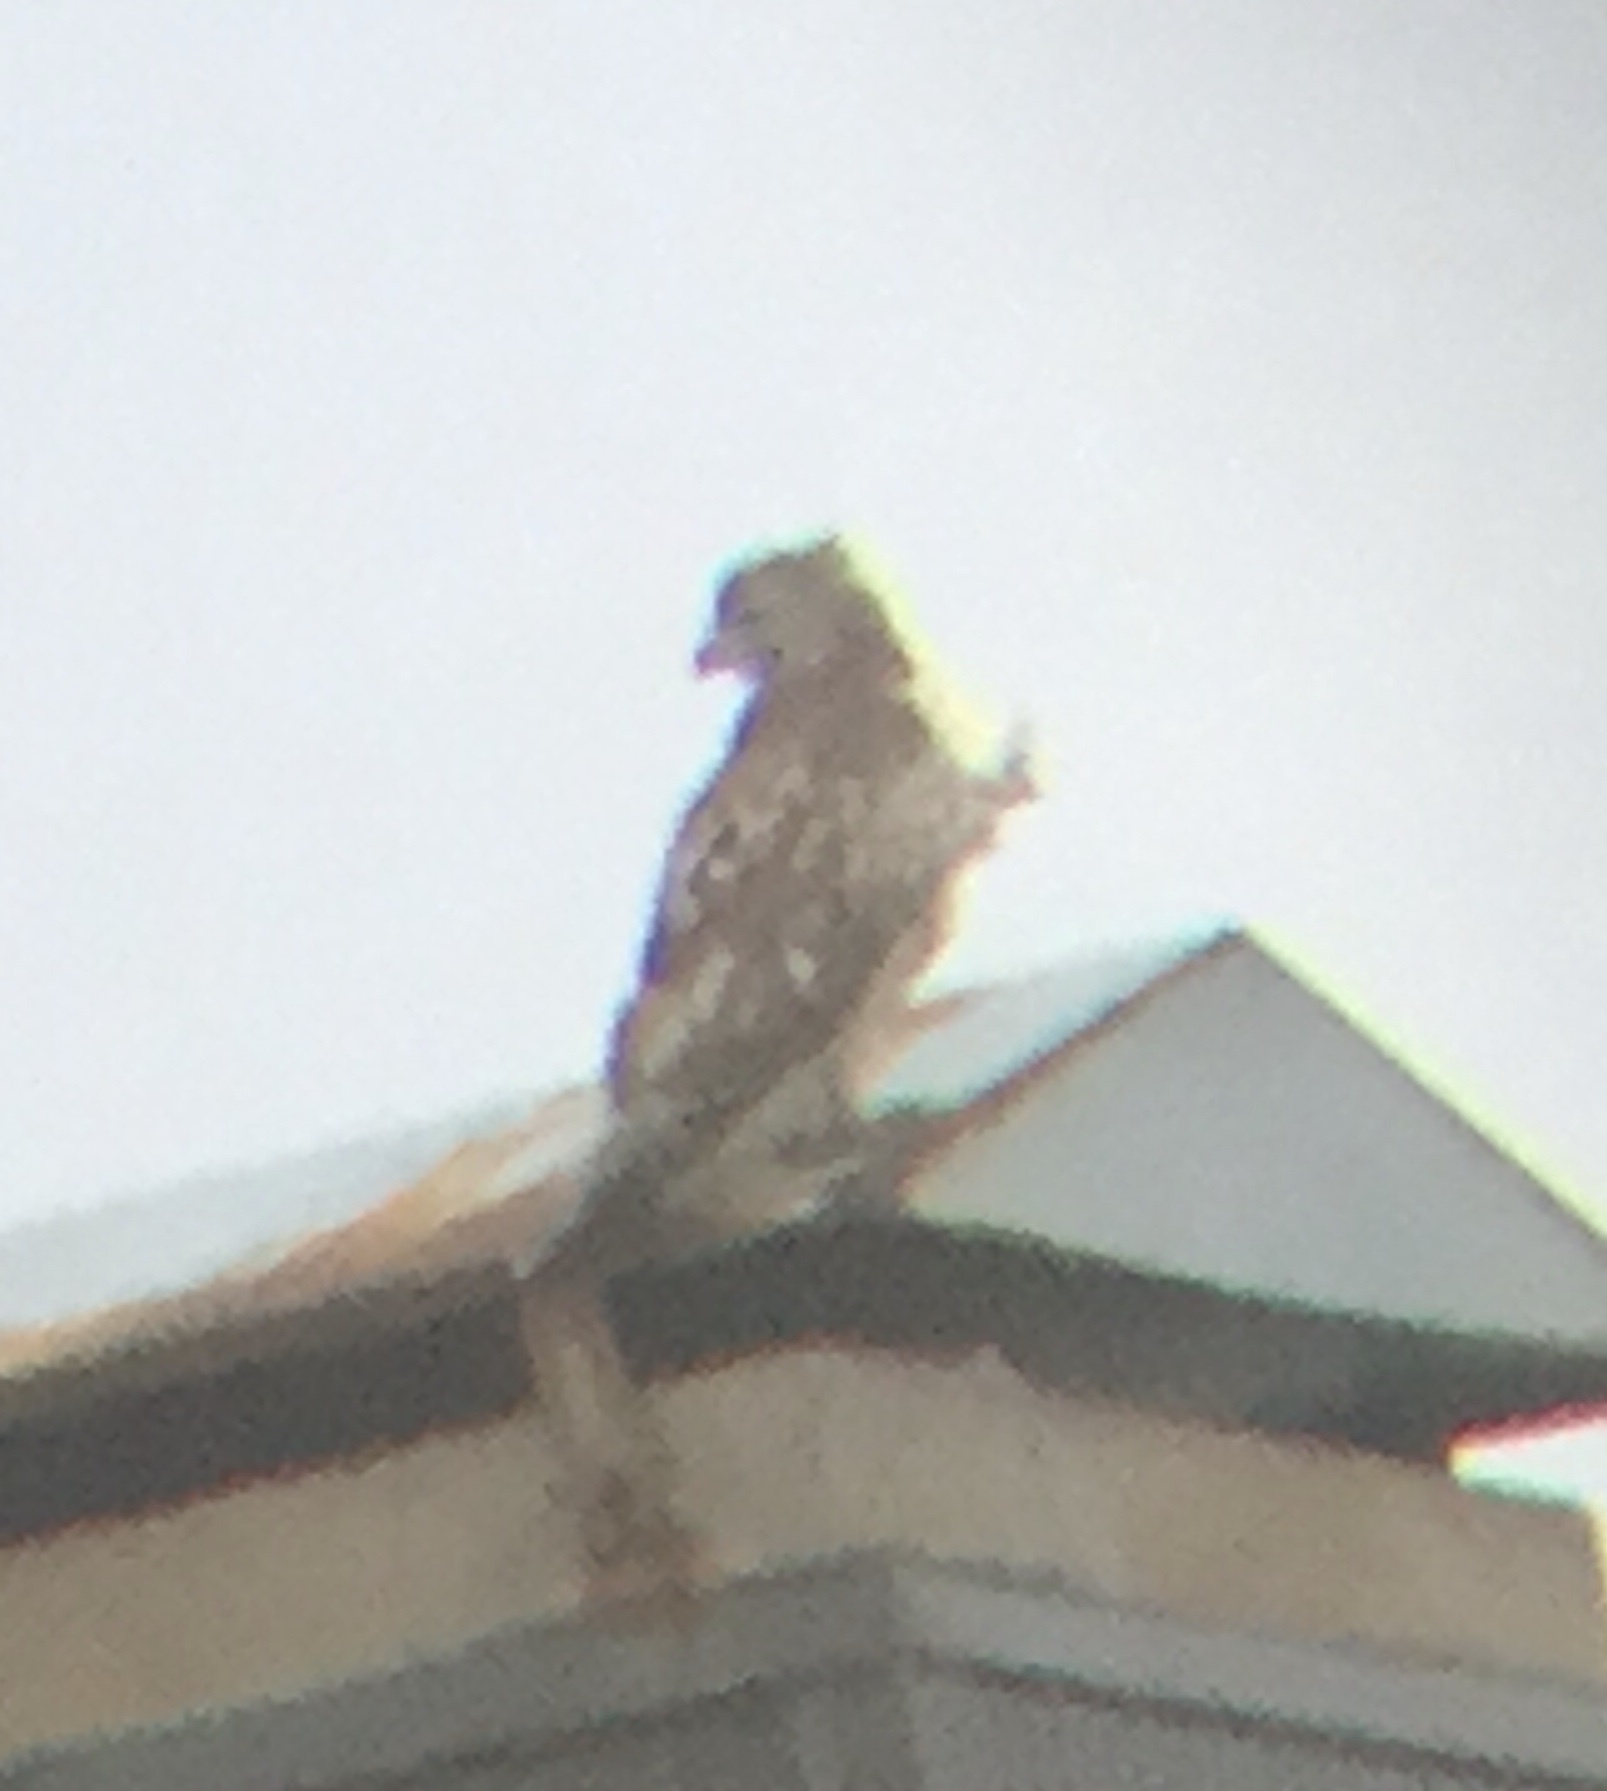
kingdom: Animalia
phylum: Chordata
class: Aves
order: Accipitriformes
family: Accipitridae
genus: Buteo
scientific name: Buteo jamaicensis
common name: Red-tailed hawk
